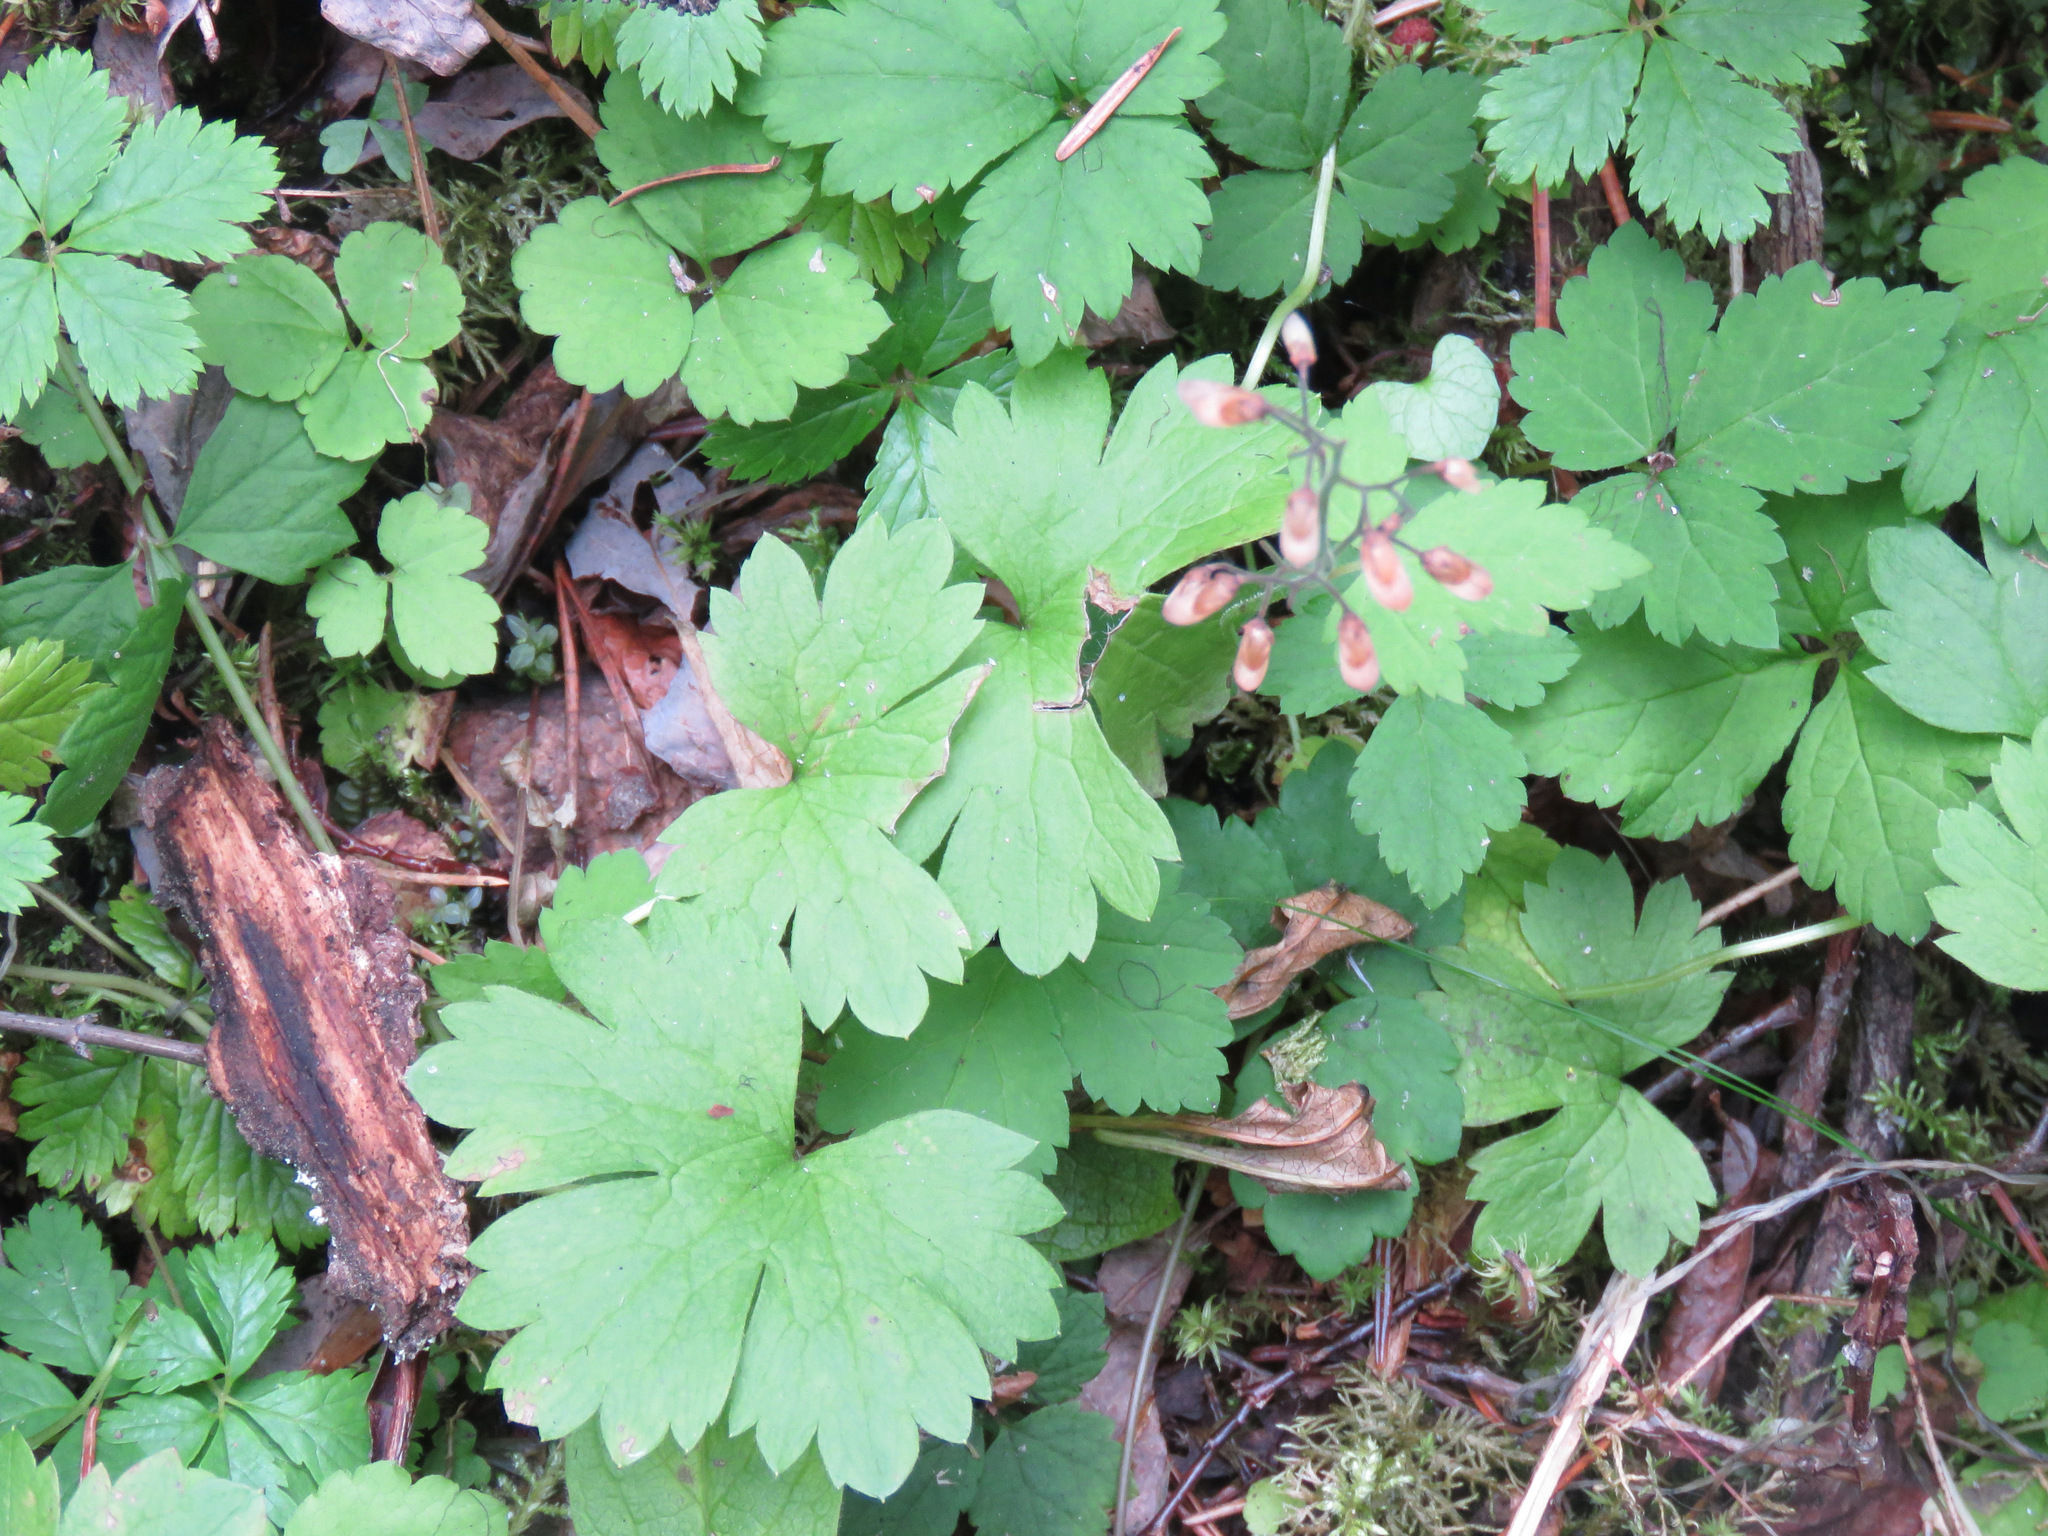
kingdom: Plantae
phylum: Tracheophyta
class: Magnoliopsida
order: Saxifragales
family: Saxifragaceae
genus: Tiarella
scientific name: Tiarella trifoliata
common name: Sugar-scoop
